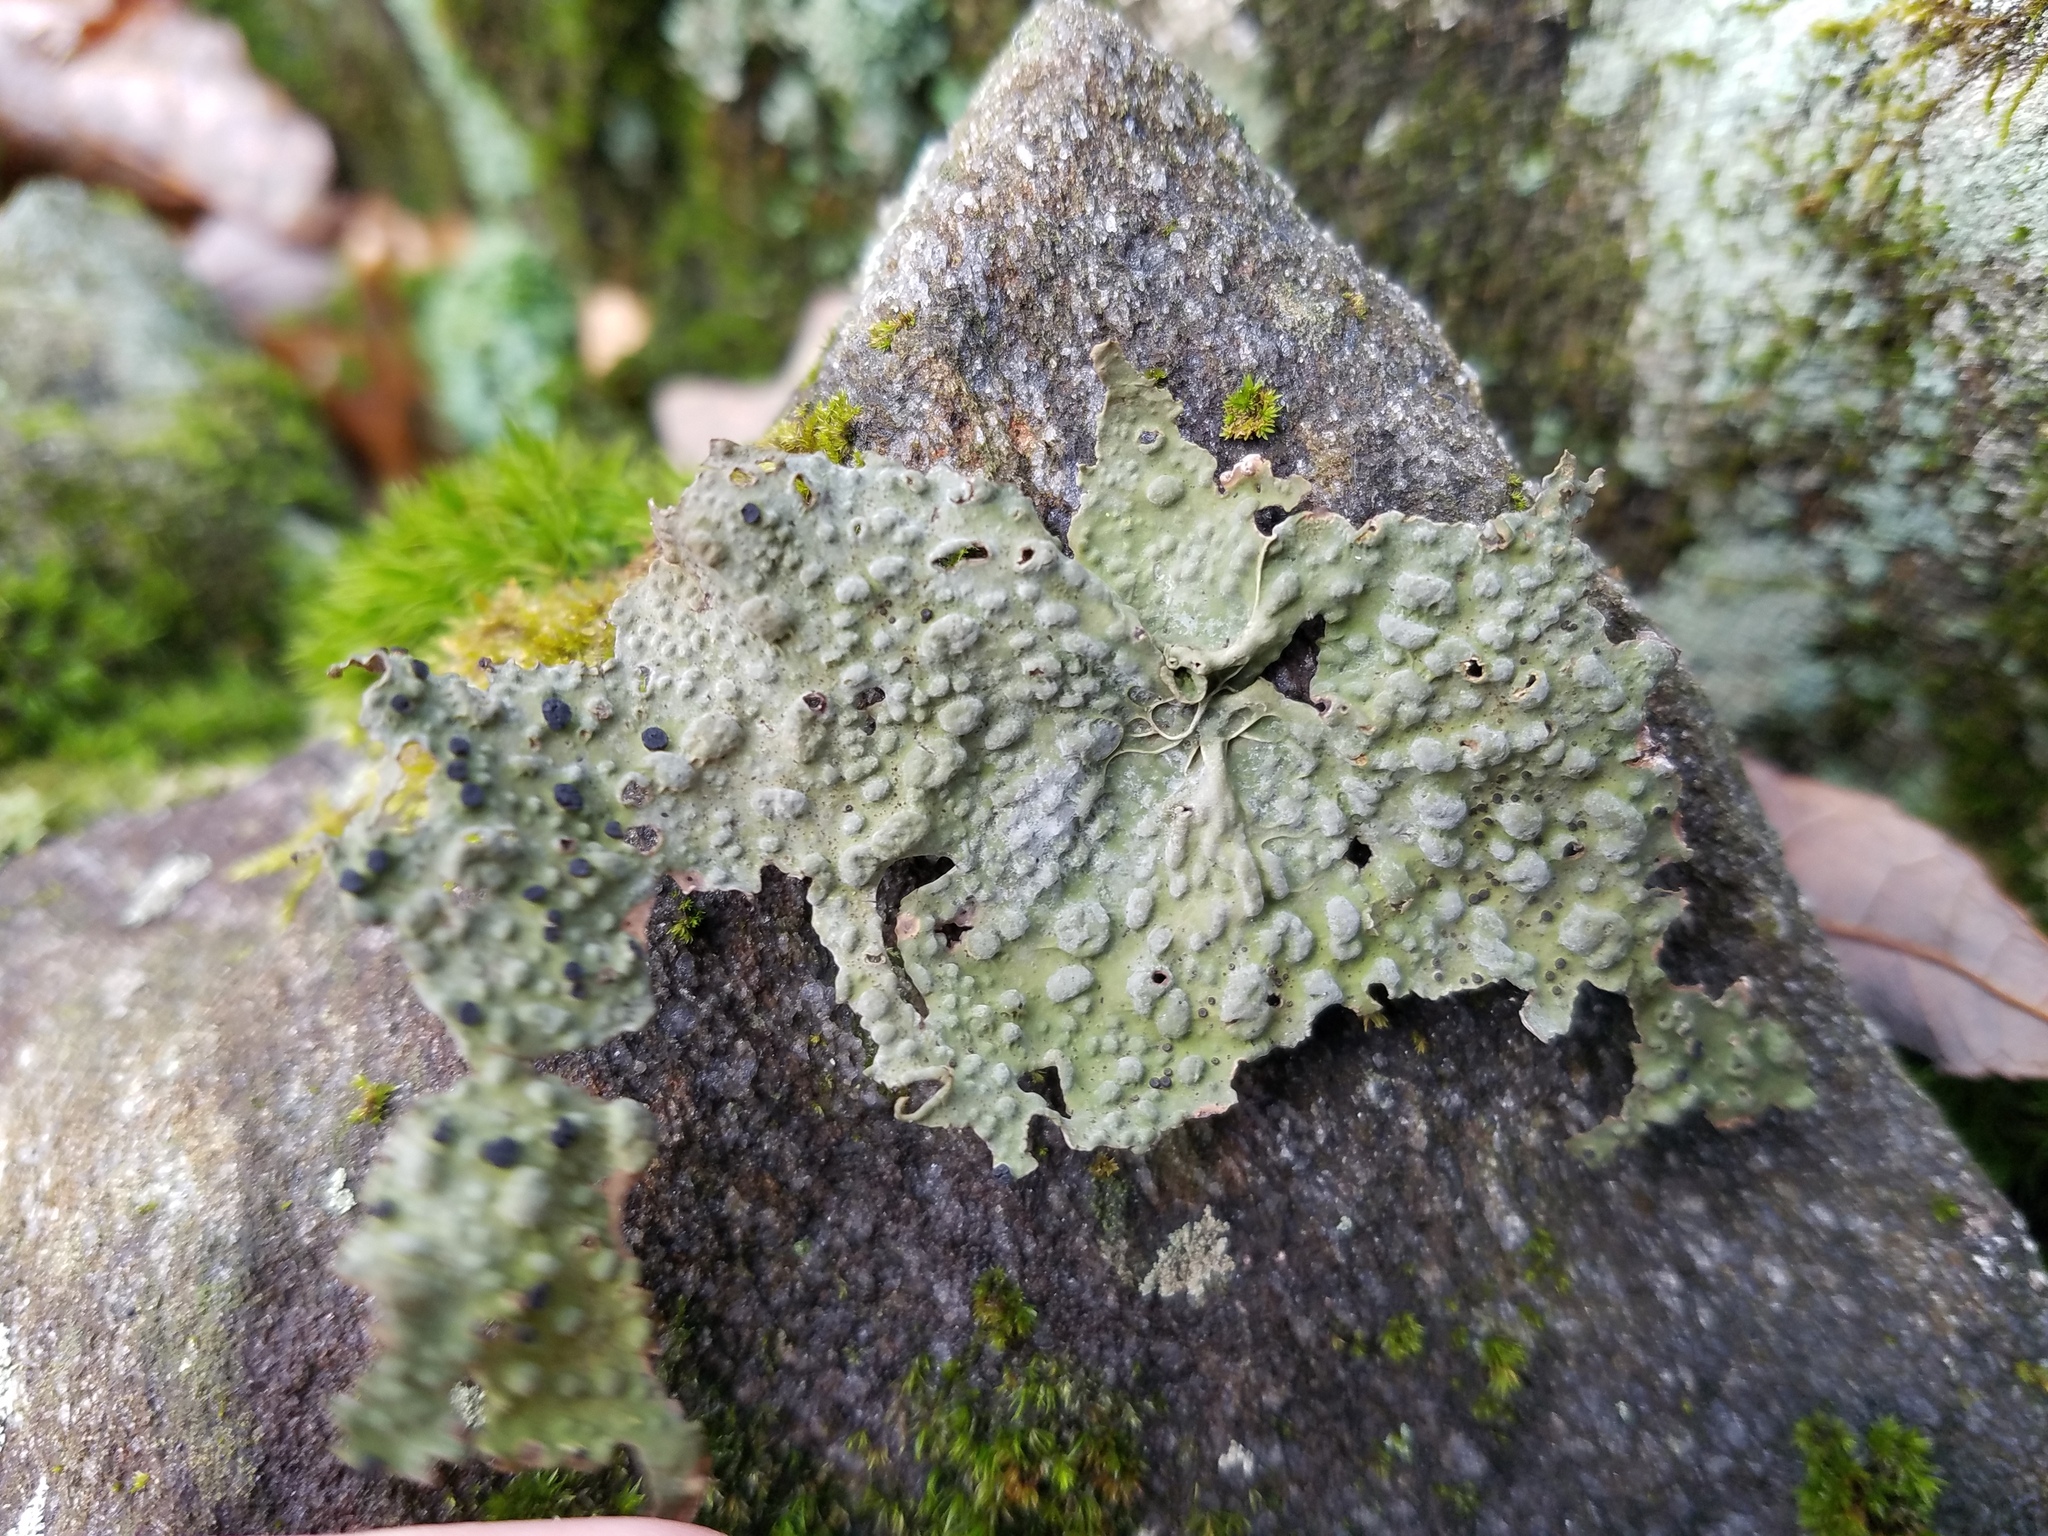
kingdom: Fungi
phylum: Ascomycota
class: Lecanoromycetes
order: Umbilicariales
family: Umbilicariaceae
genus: Lasallia
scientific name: Lasallia papulosa
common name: Common toadskin lichen
